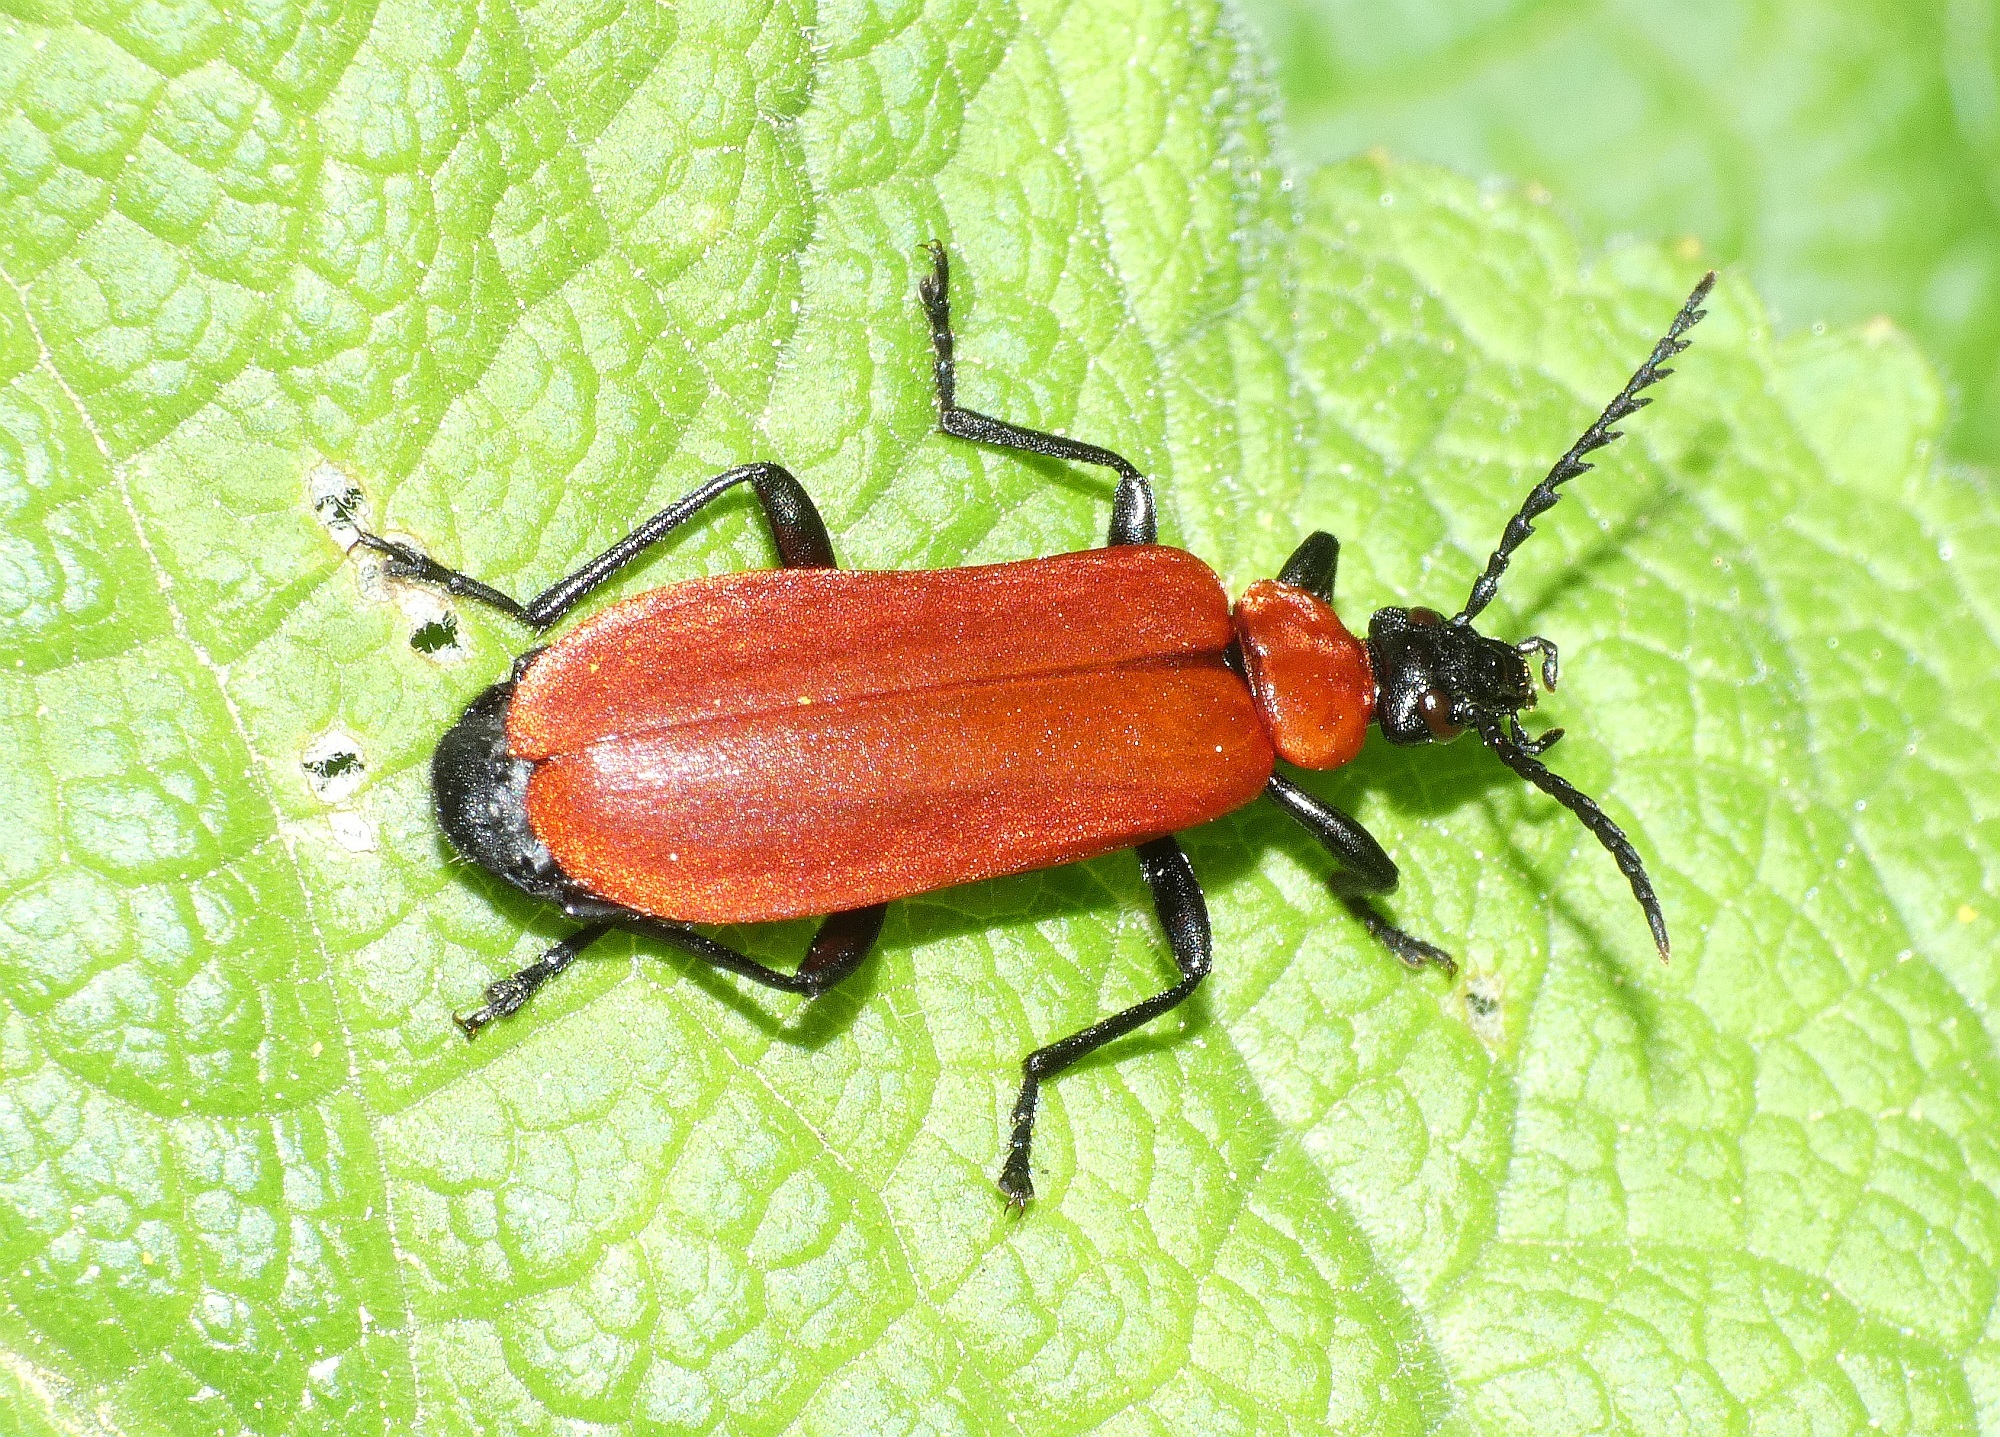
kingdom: Animalia
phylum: Arthropoda
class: Insecta
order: Coleoptera
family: Pyrochroidae
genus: Pyrochroa
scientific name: Pyrochroa coccinea
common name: Black-headed cardinal beetle
